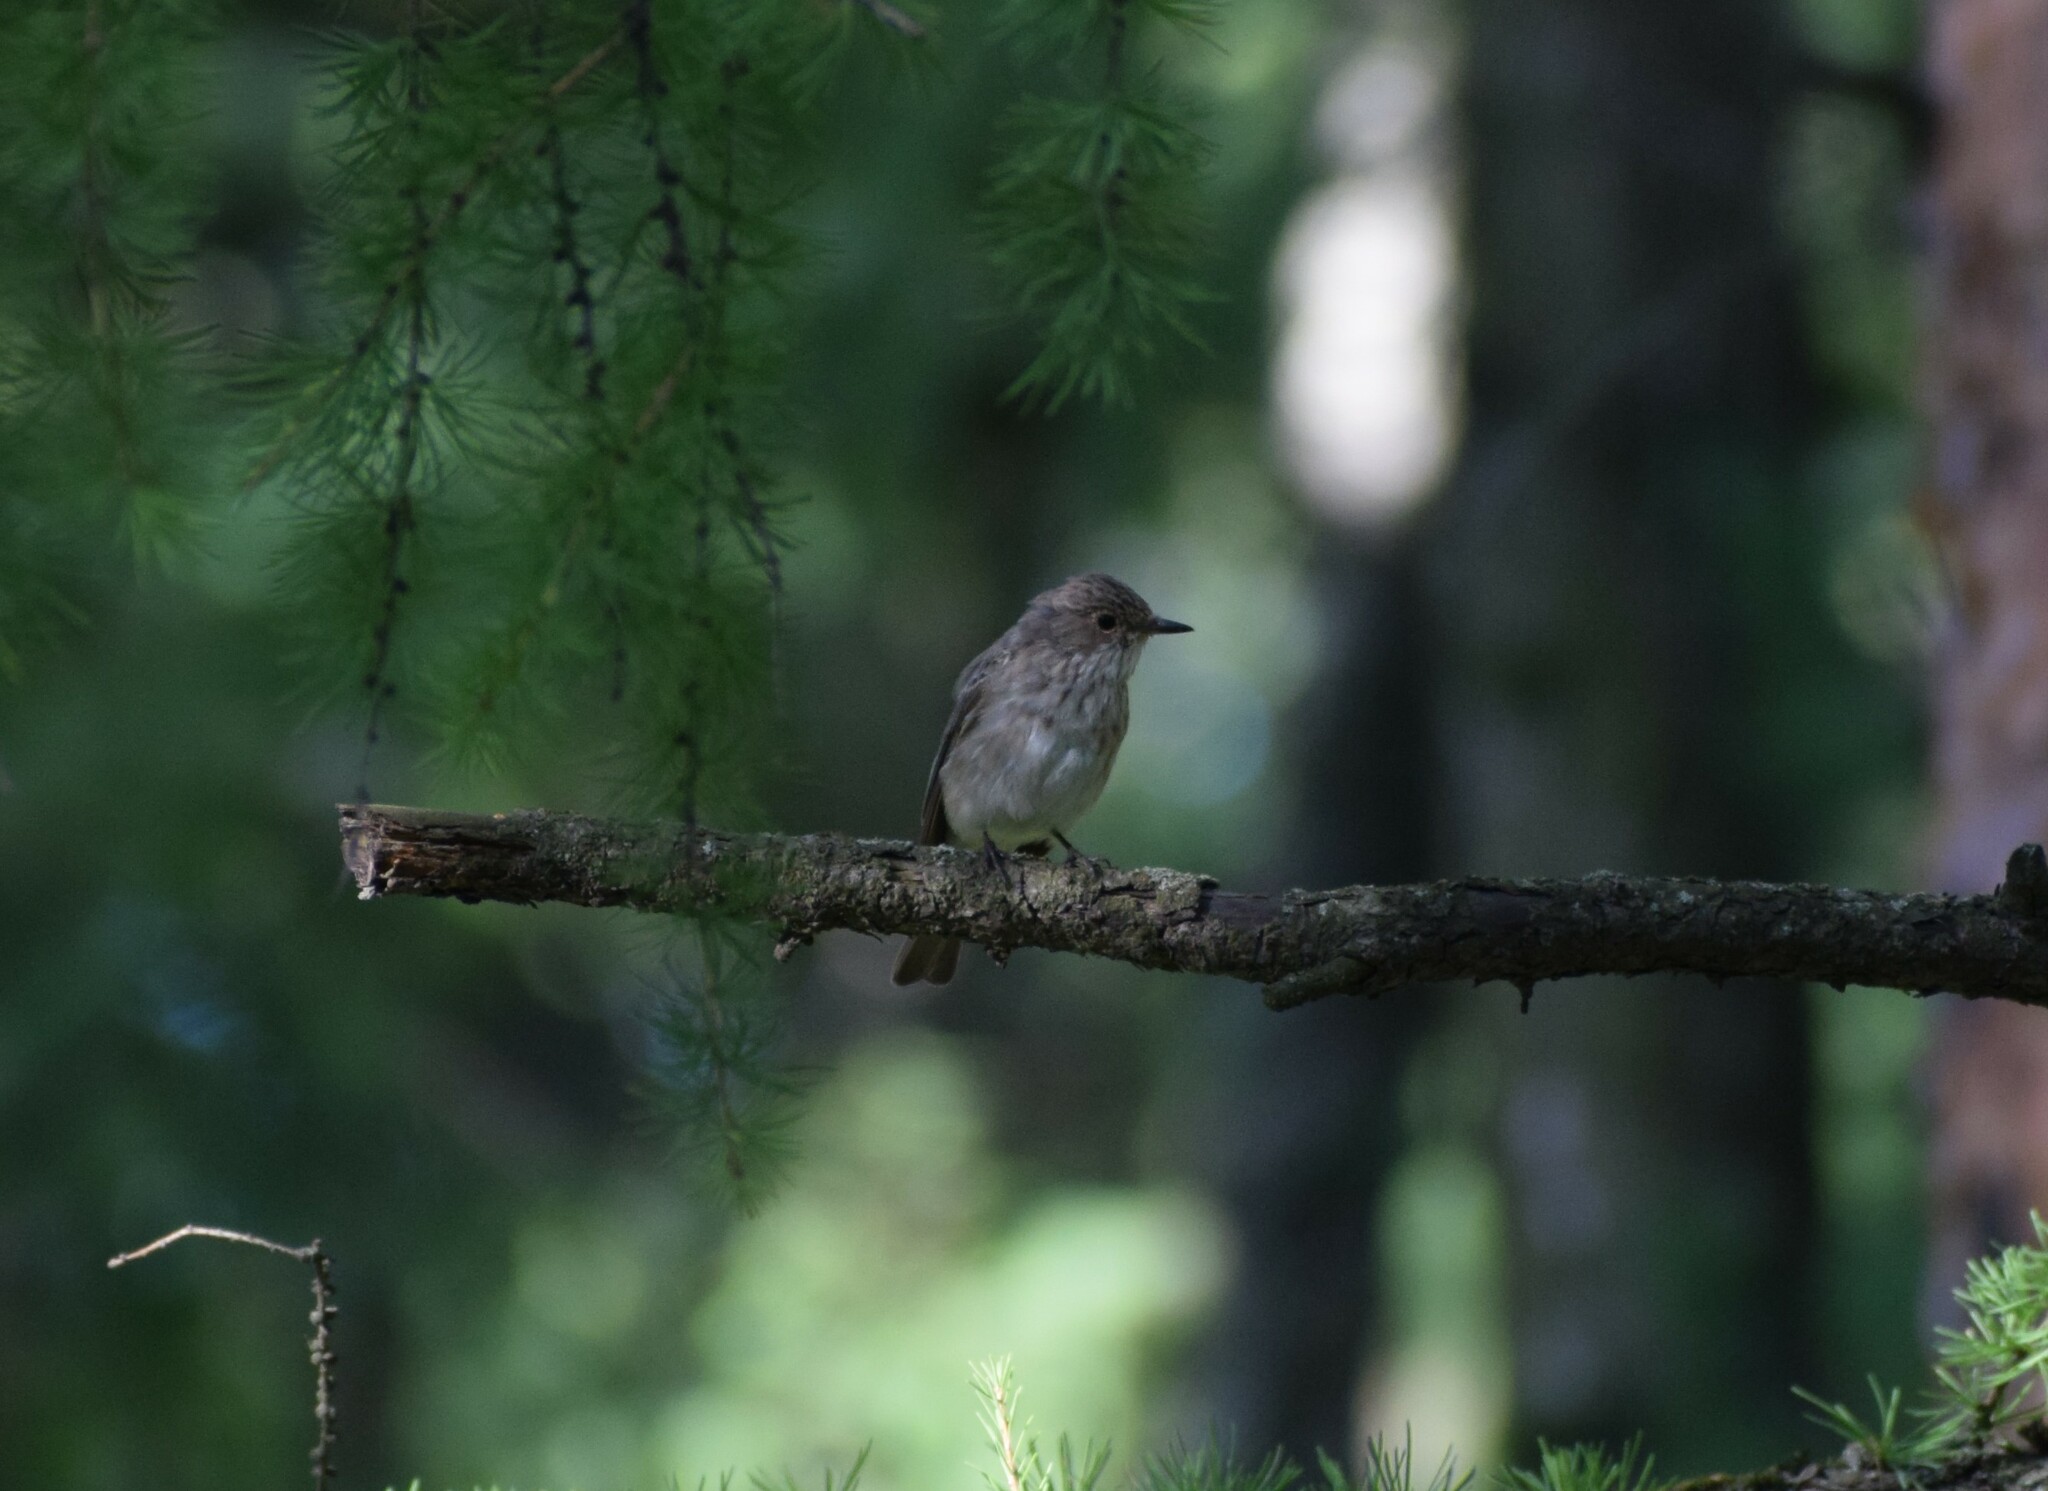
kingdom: Animalia
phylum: Chordata
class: Aves
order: Passeriformes
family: Muscicapidae
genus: Muscicapa
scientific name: Muscicapa striata
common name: Spotted flycatcher
